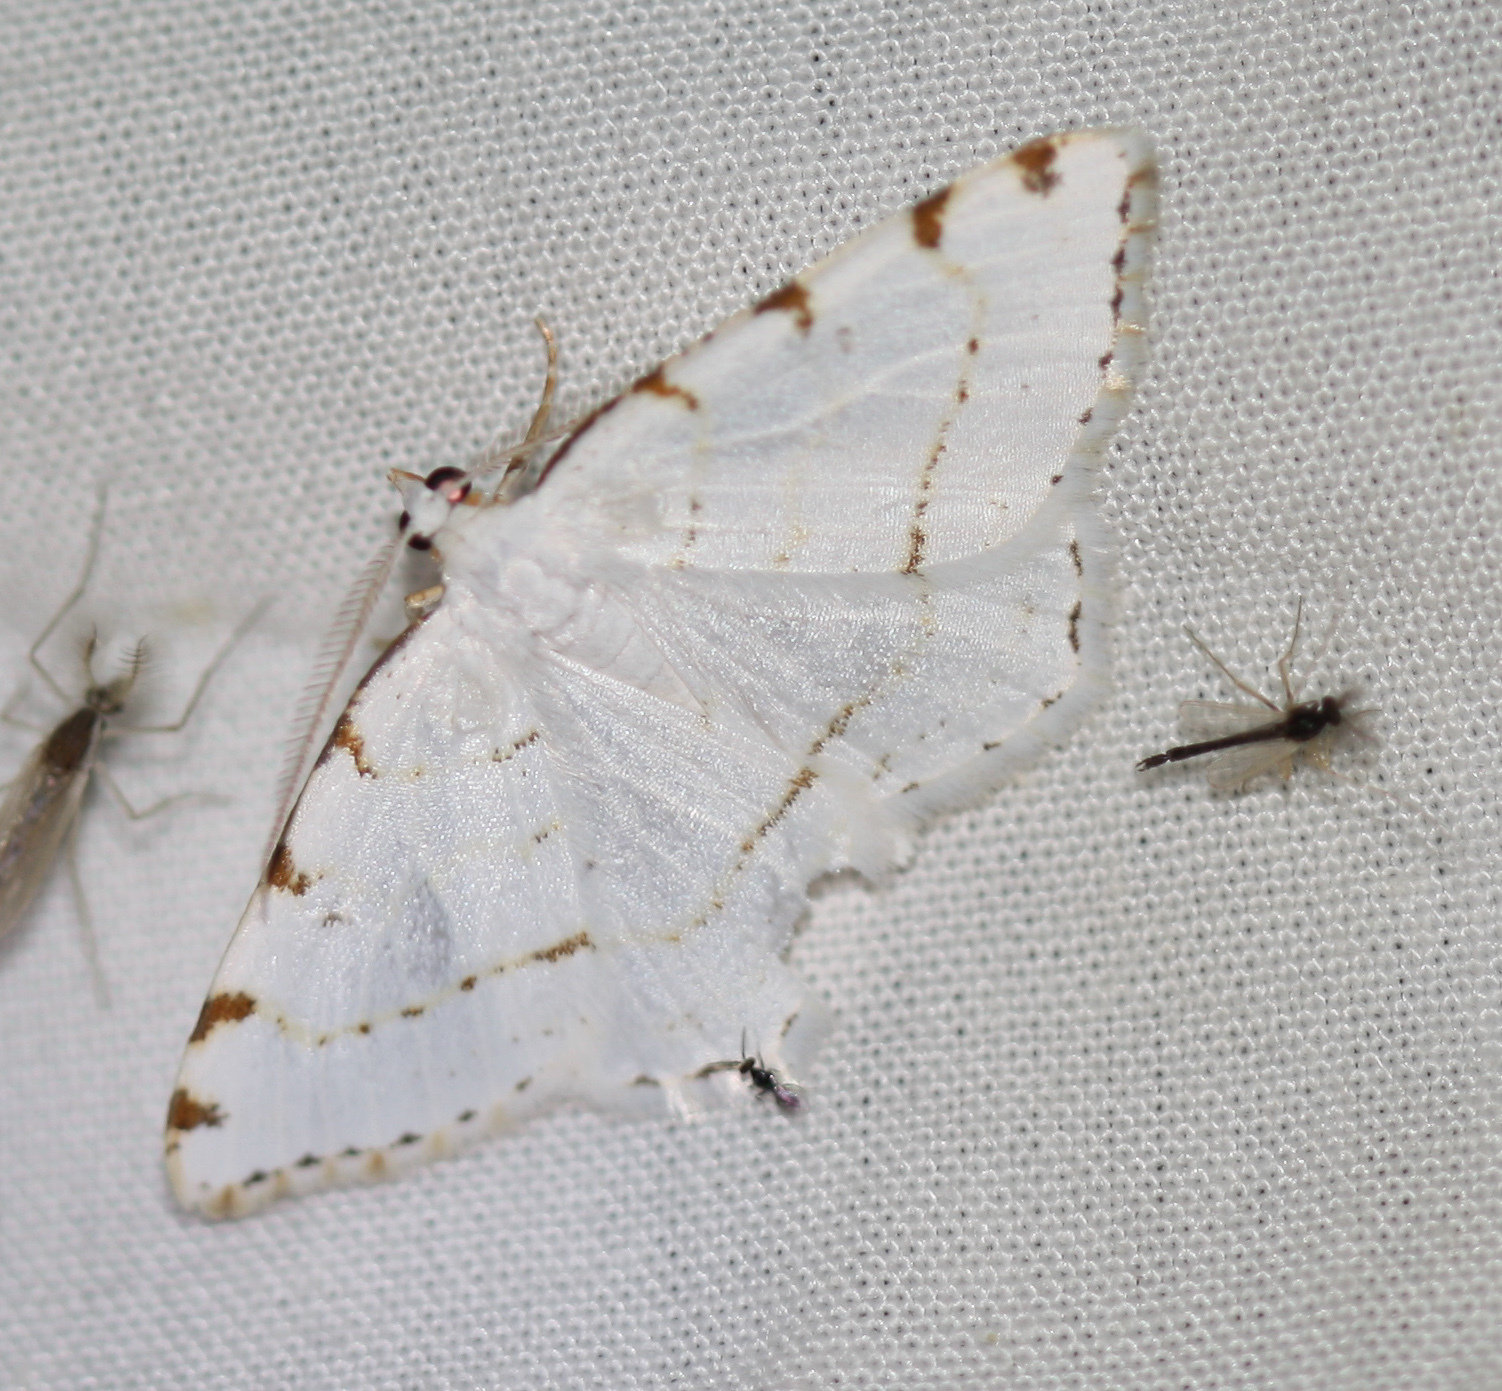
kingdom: Animalia
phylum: Arthropoda
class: Insecta
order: Lepidoptera
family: Geometridae
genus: Macaria
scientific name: Macaria pustularia
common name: Lesser maple spanworm moth
